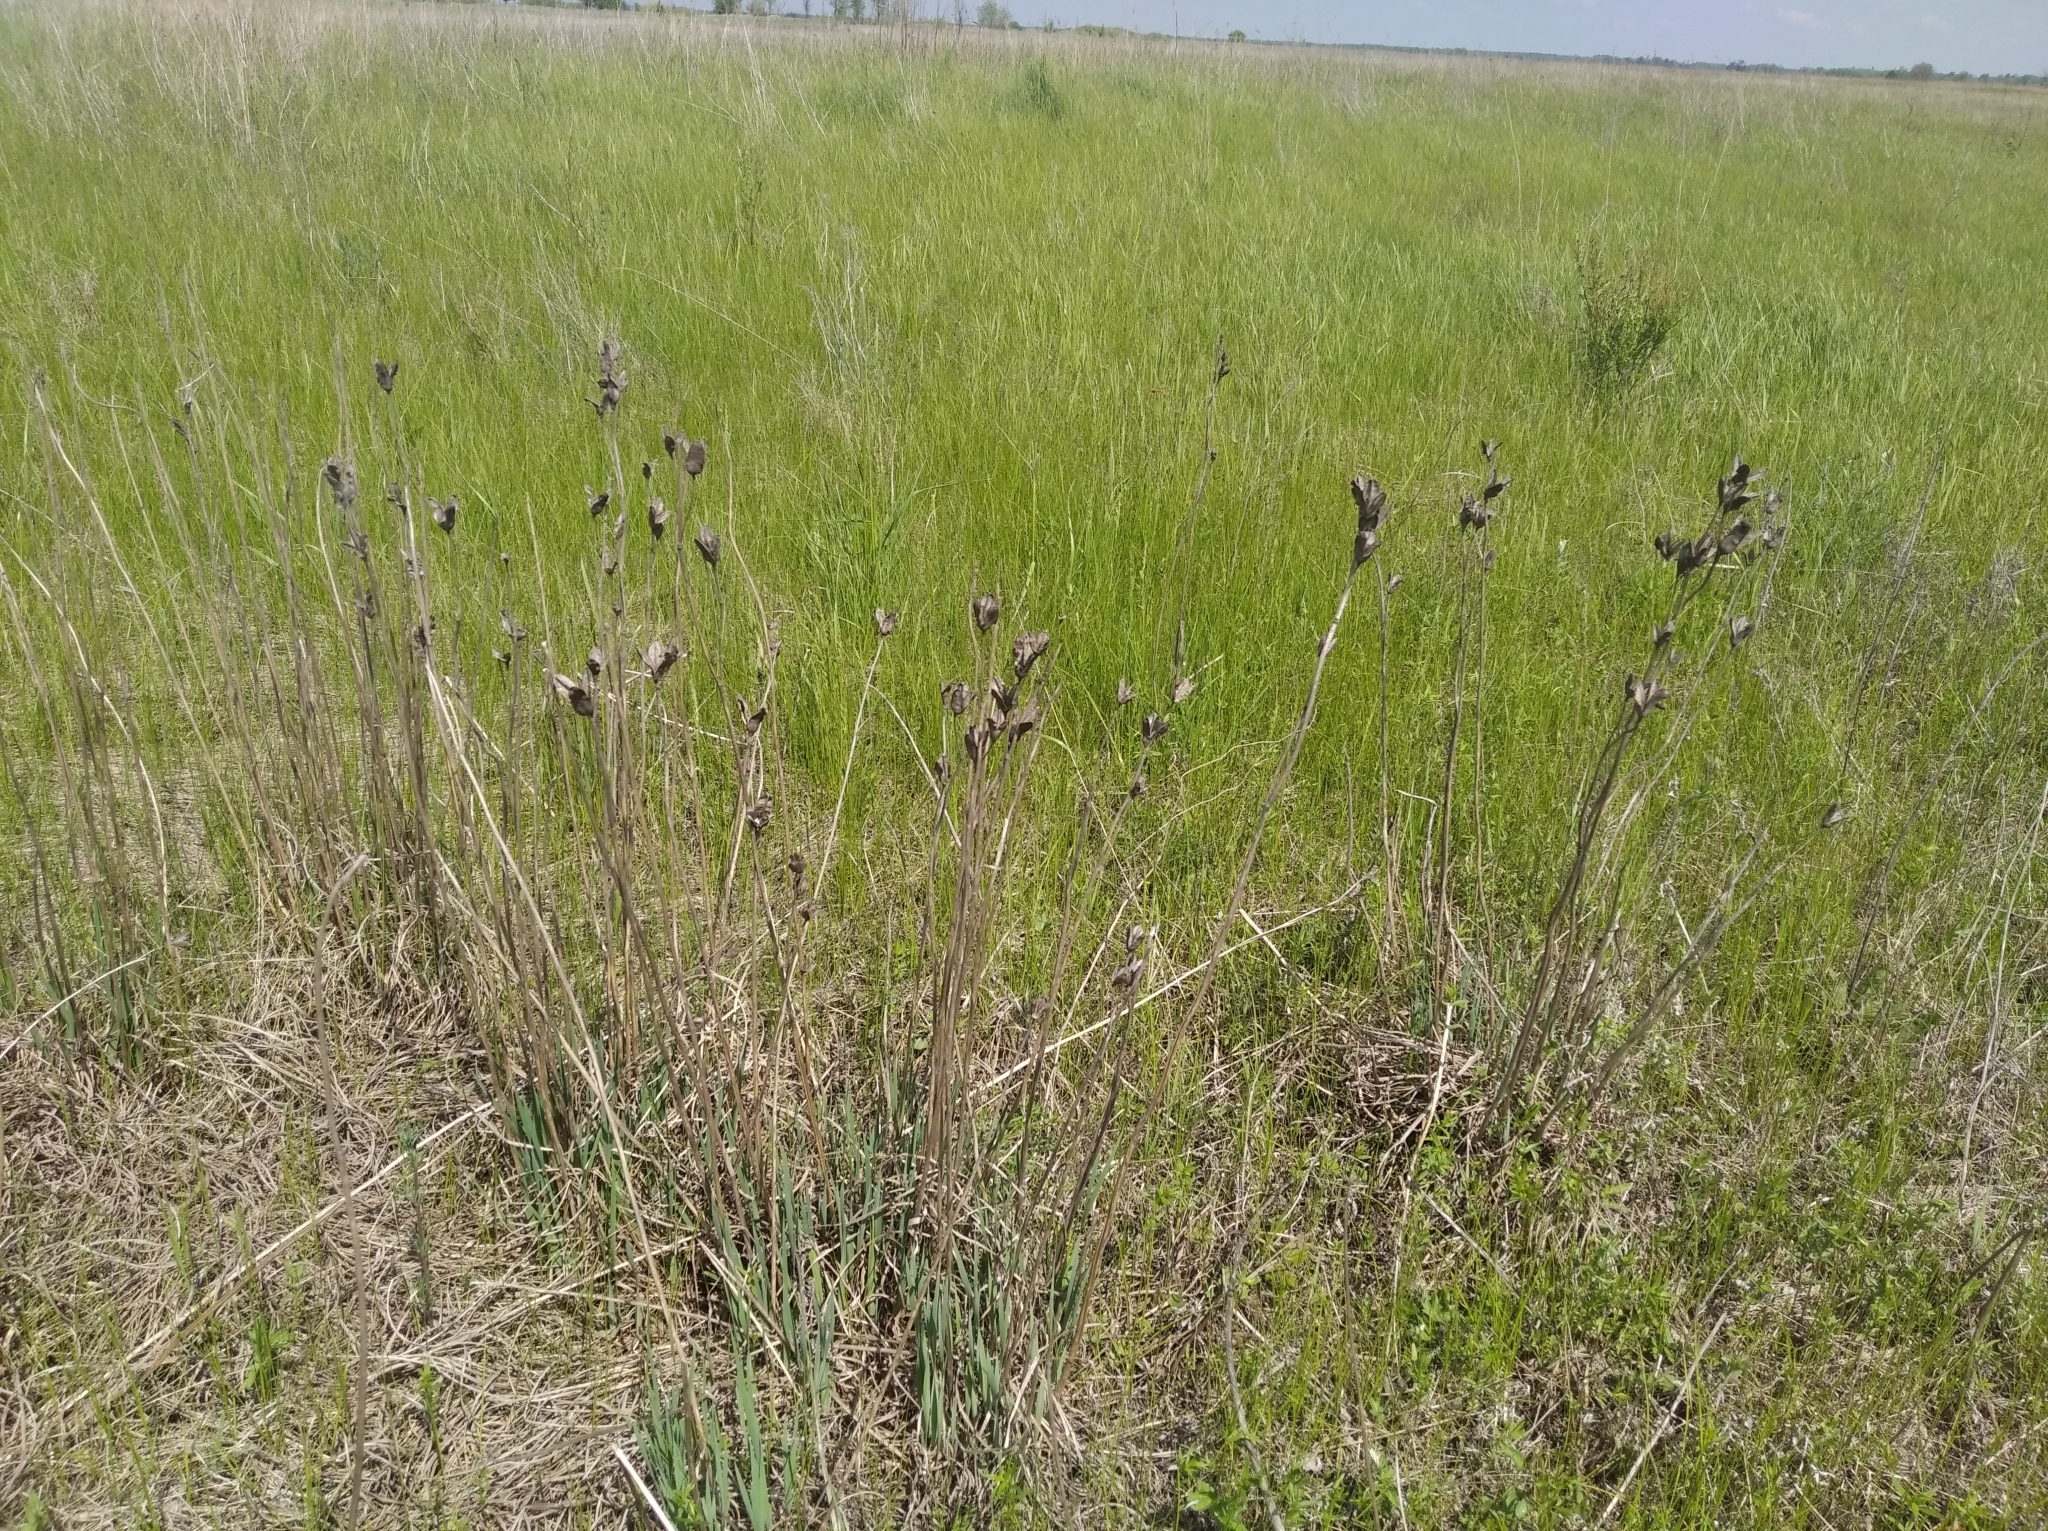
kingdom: Plantae
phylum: Tracheophyta
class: Liliopsida
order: Asparagales
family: Iridaceae
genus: Iris
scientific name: Iris sibirica
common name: Siberian iris
